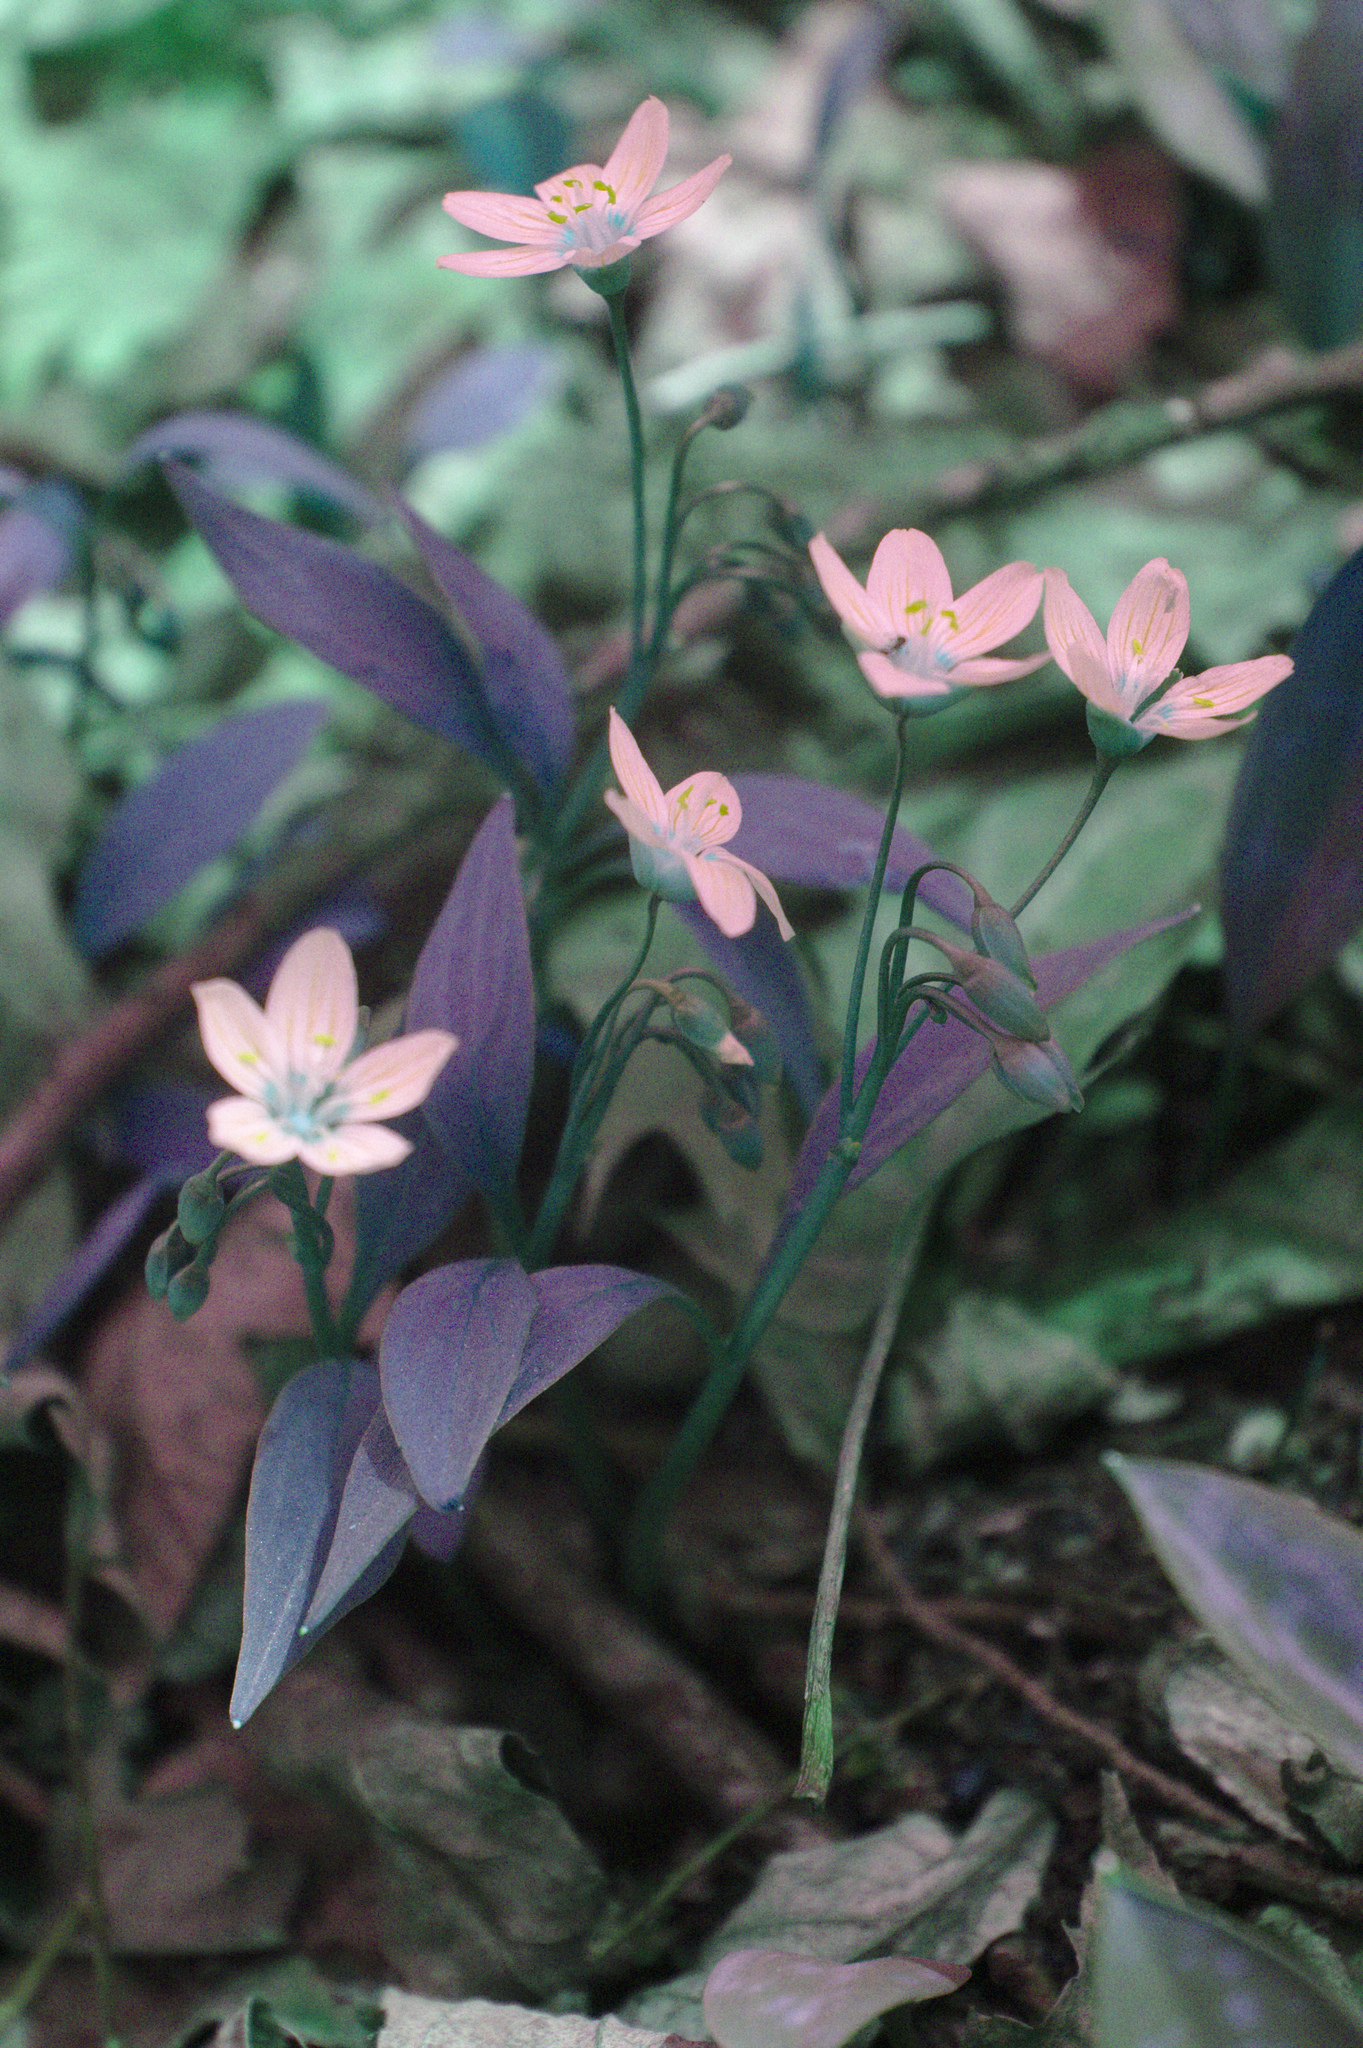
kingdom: Plantae
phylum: Tracheophyta
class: Magnoliopsida
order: Caryophyllales
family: Montiaceae
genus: Claytonia
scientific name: Claytonia caroliniana
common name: Carolina spring beauty
